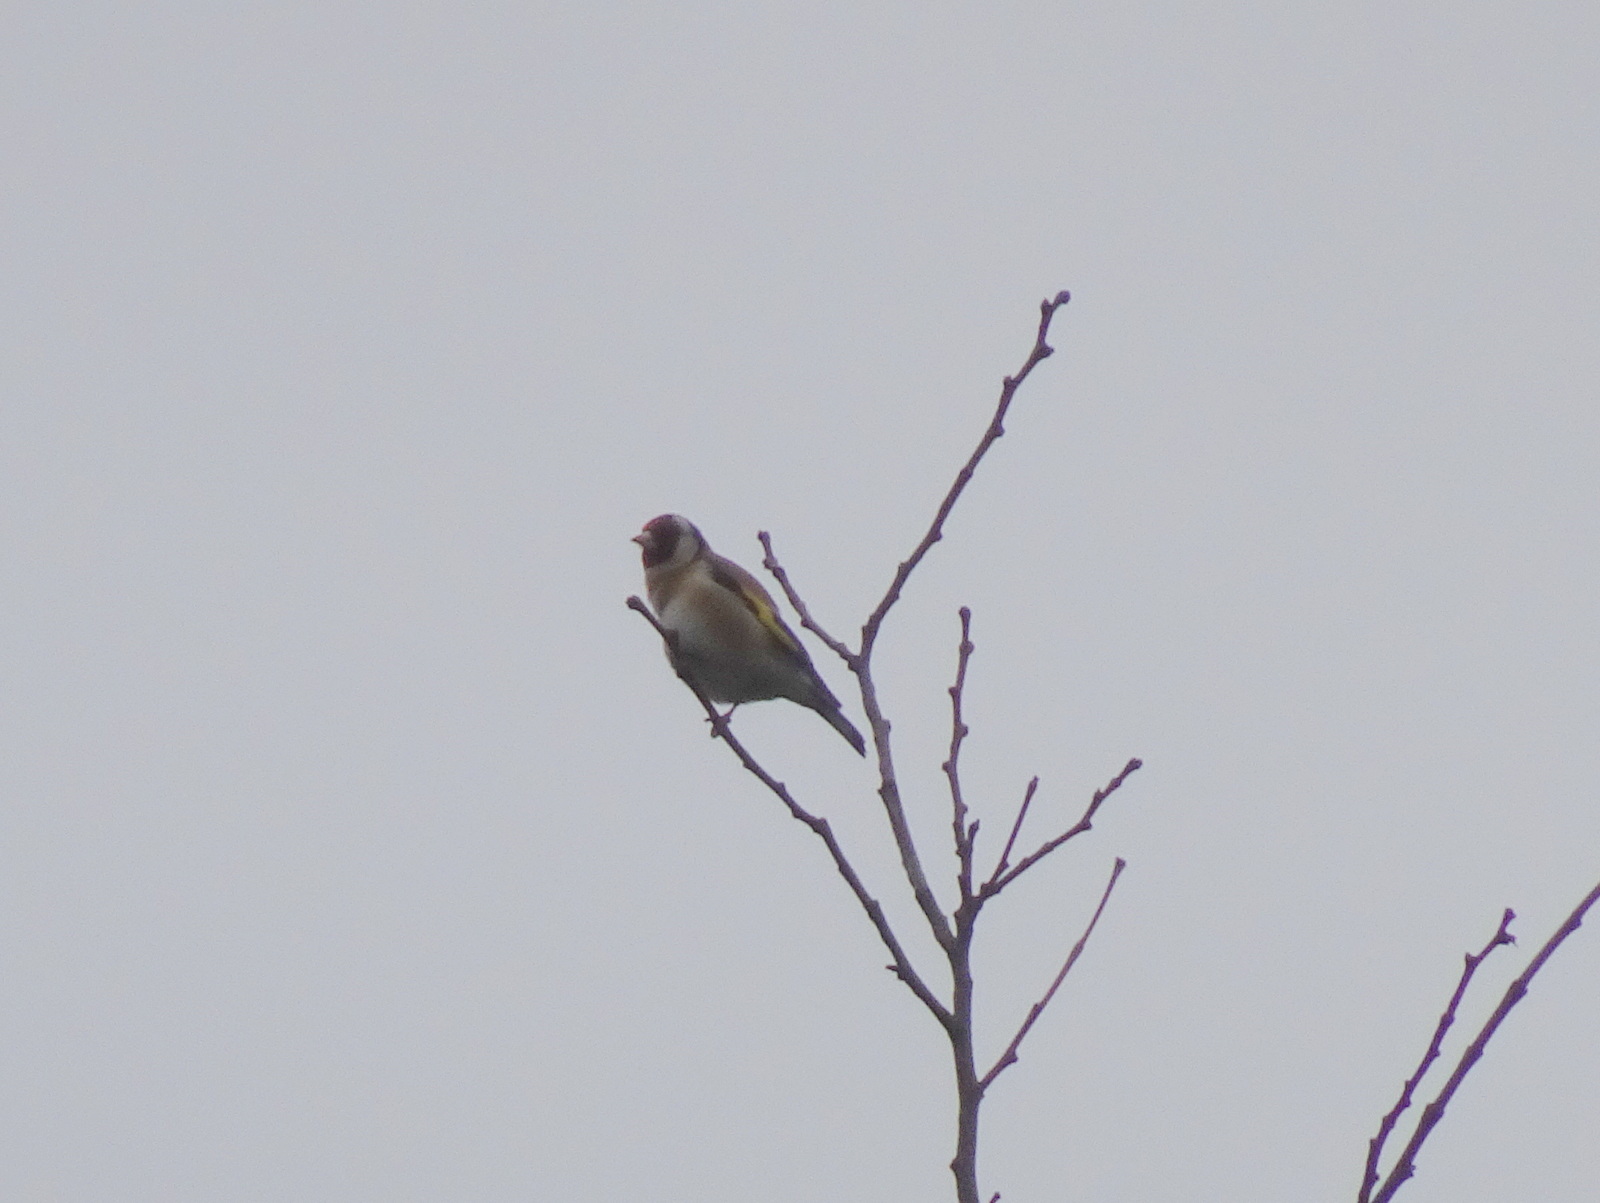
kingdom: Animalia
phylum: Chordata
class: Aves
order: Passeriformes
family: Fringillidae
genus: Carduelis
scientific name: Carduelis carduelis
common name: European goldfinch
